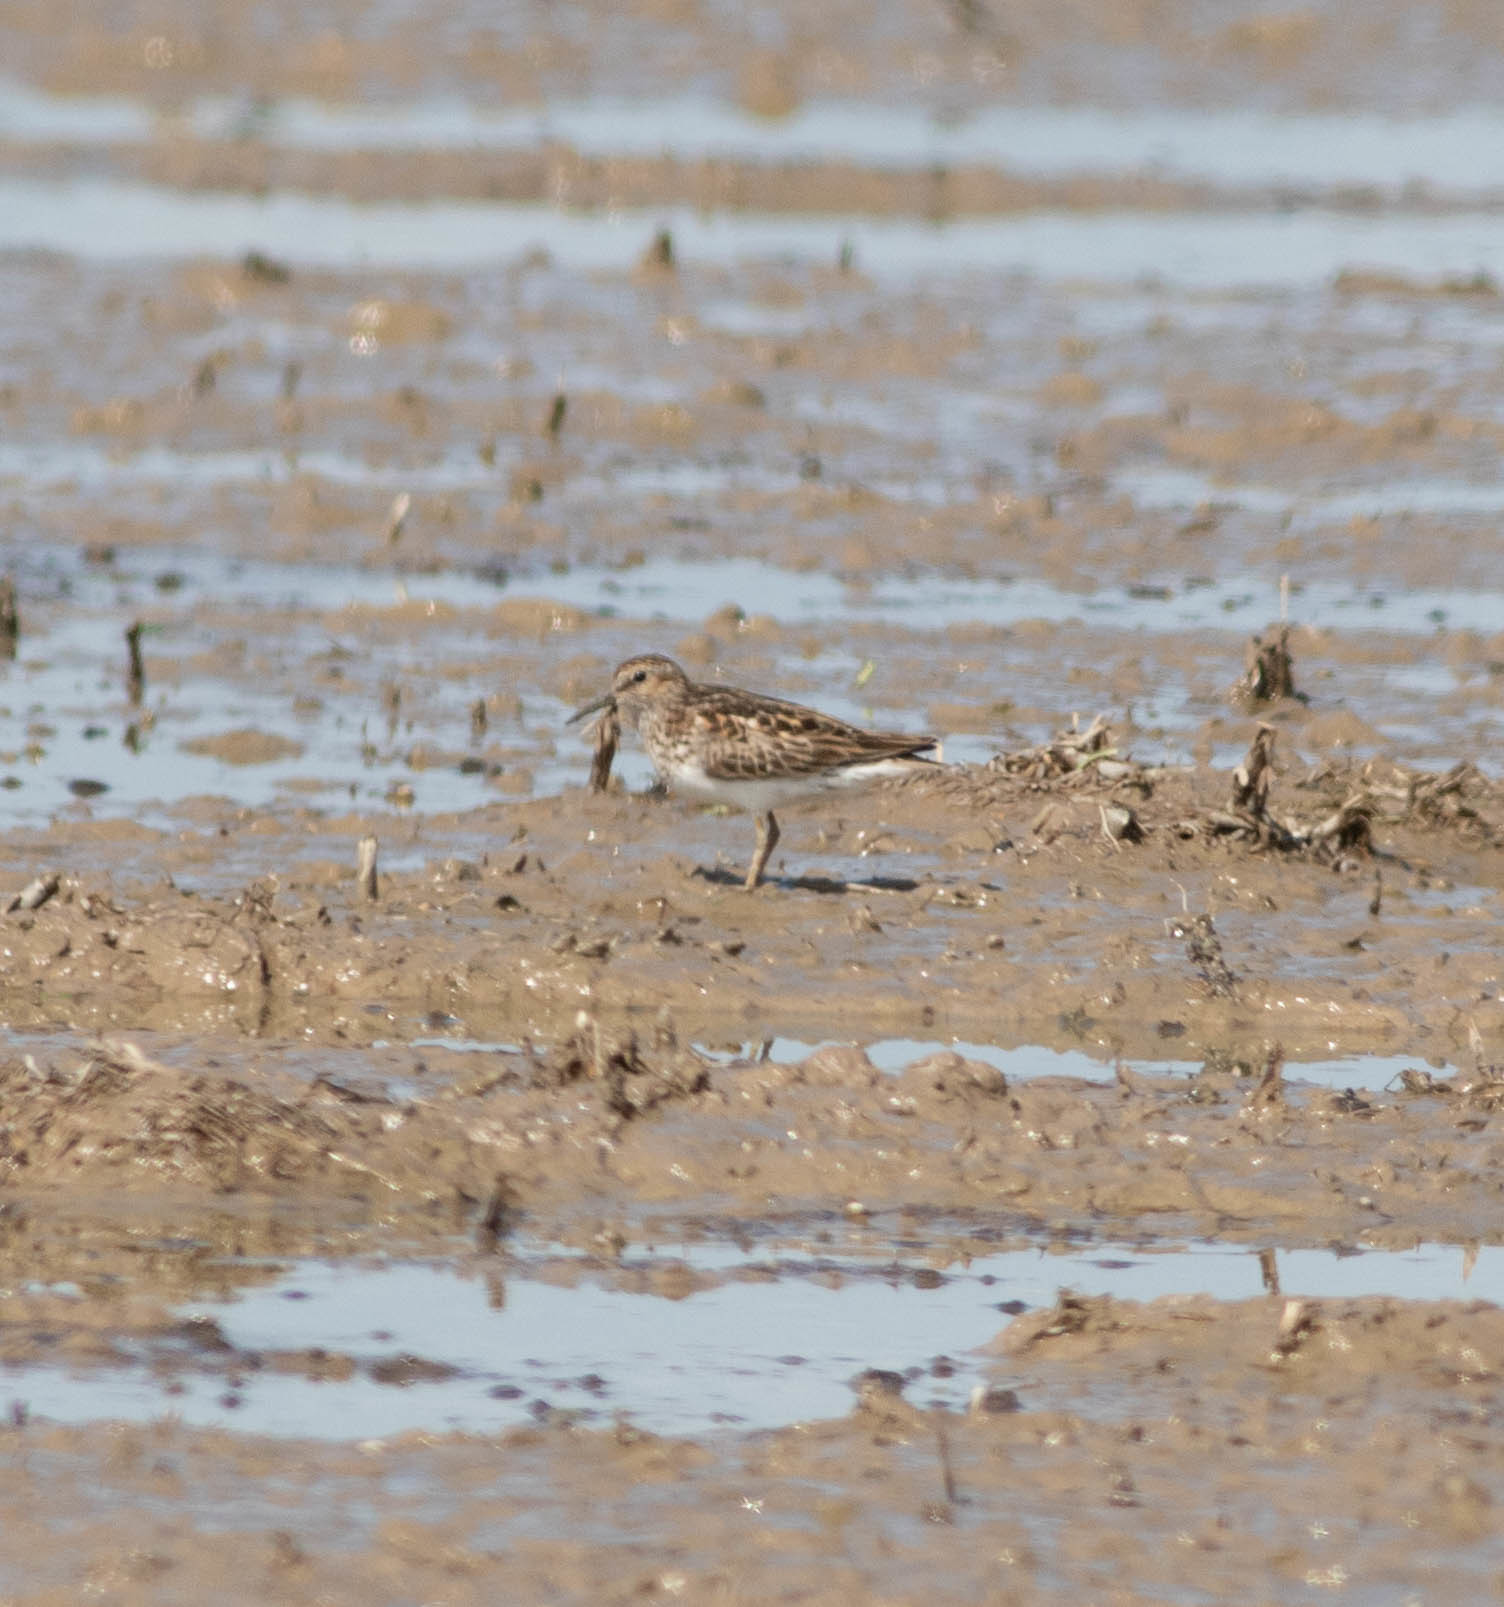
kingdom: Animalia
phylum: Chordata
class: Aves
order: Charadriiformes
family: Scolopacidae
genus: Calidris
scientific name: Calidris minutilla
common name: Least sandpiper
